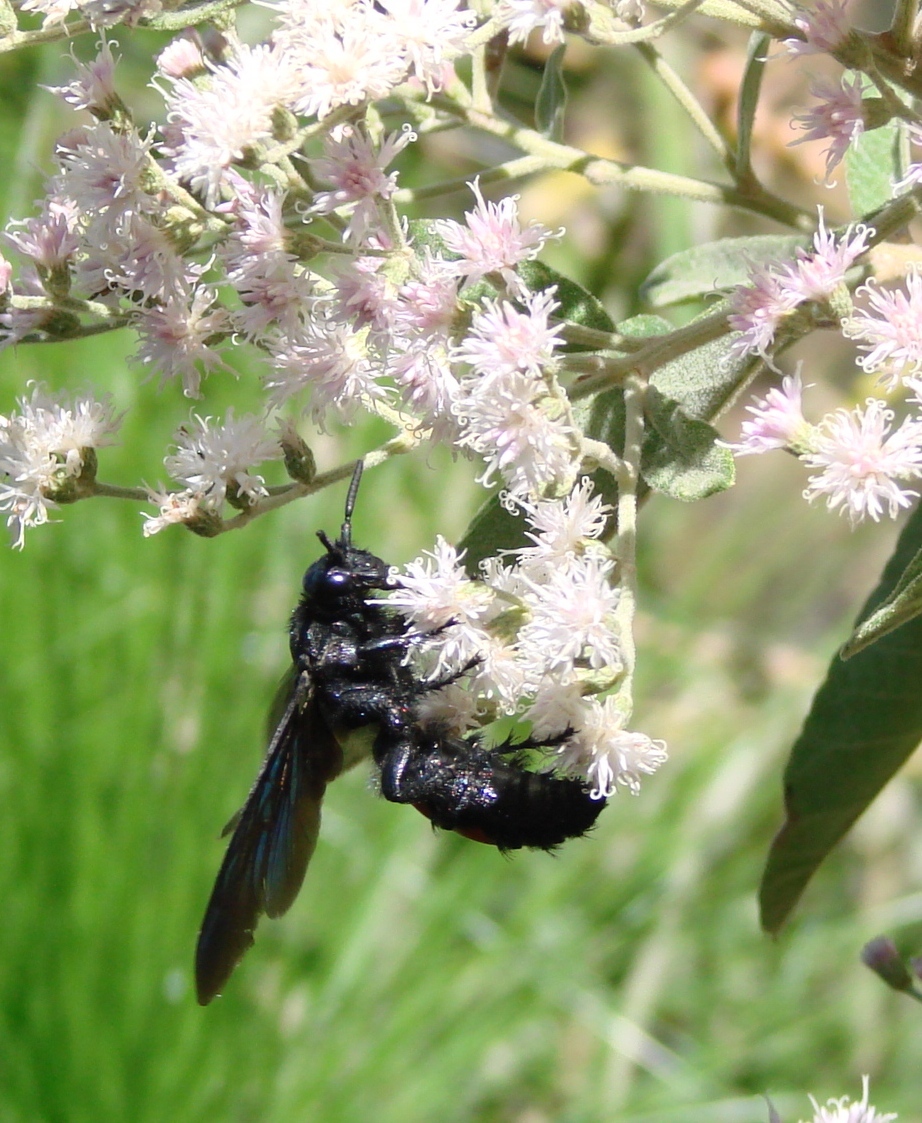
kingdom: Animalia
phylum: Arthropoda
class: Insecta
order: Hymenoptera
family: Scoliidae
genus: Pygodasis
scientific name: Pygodasis ephippium
